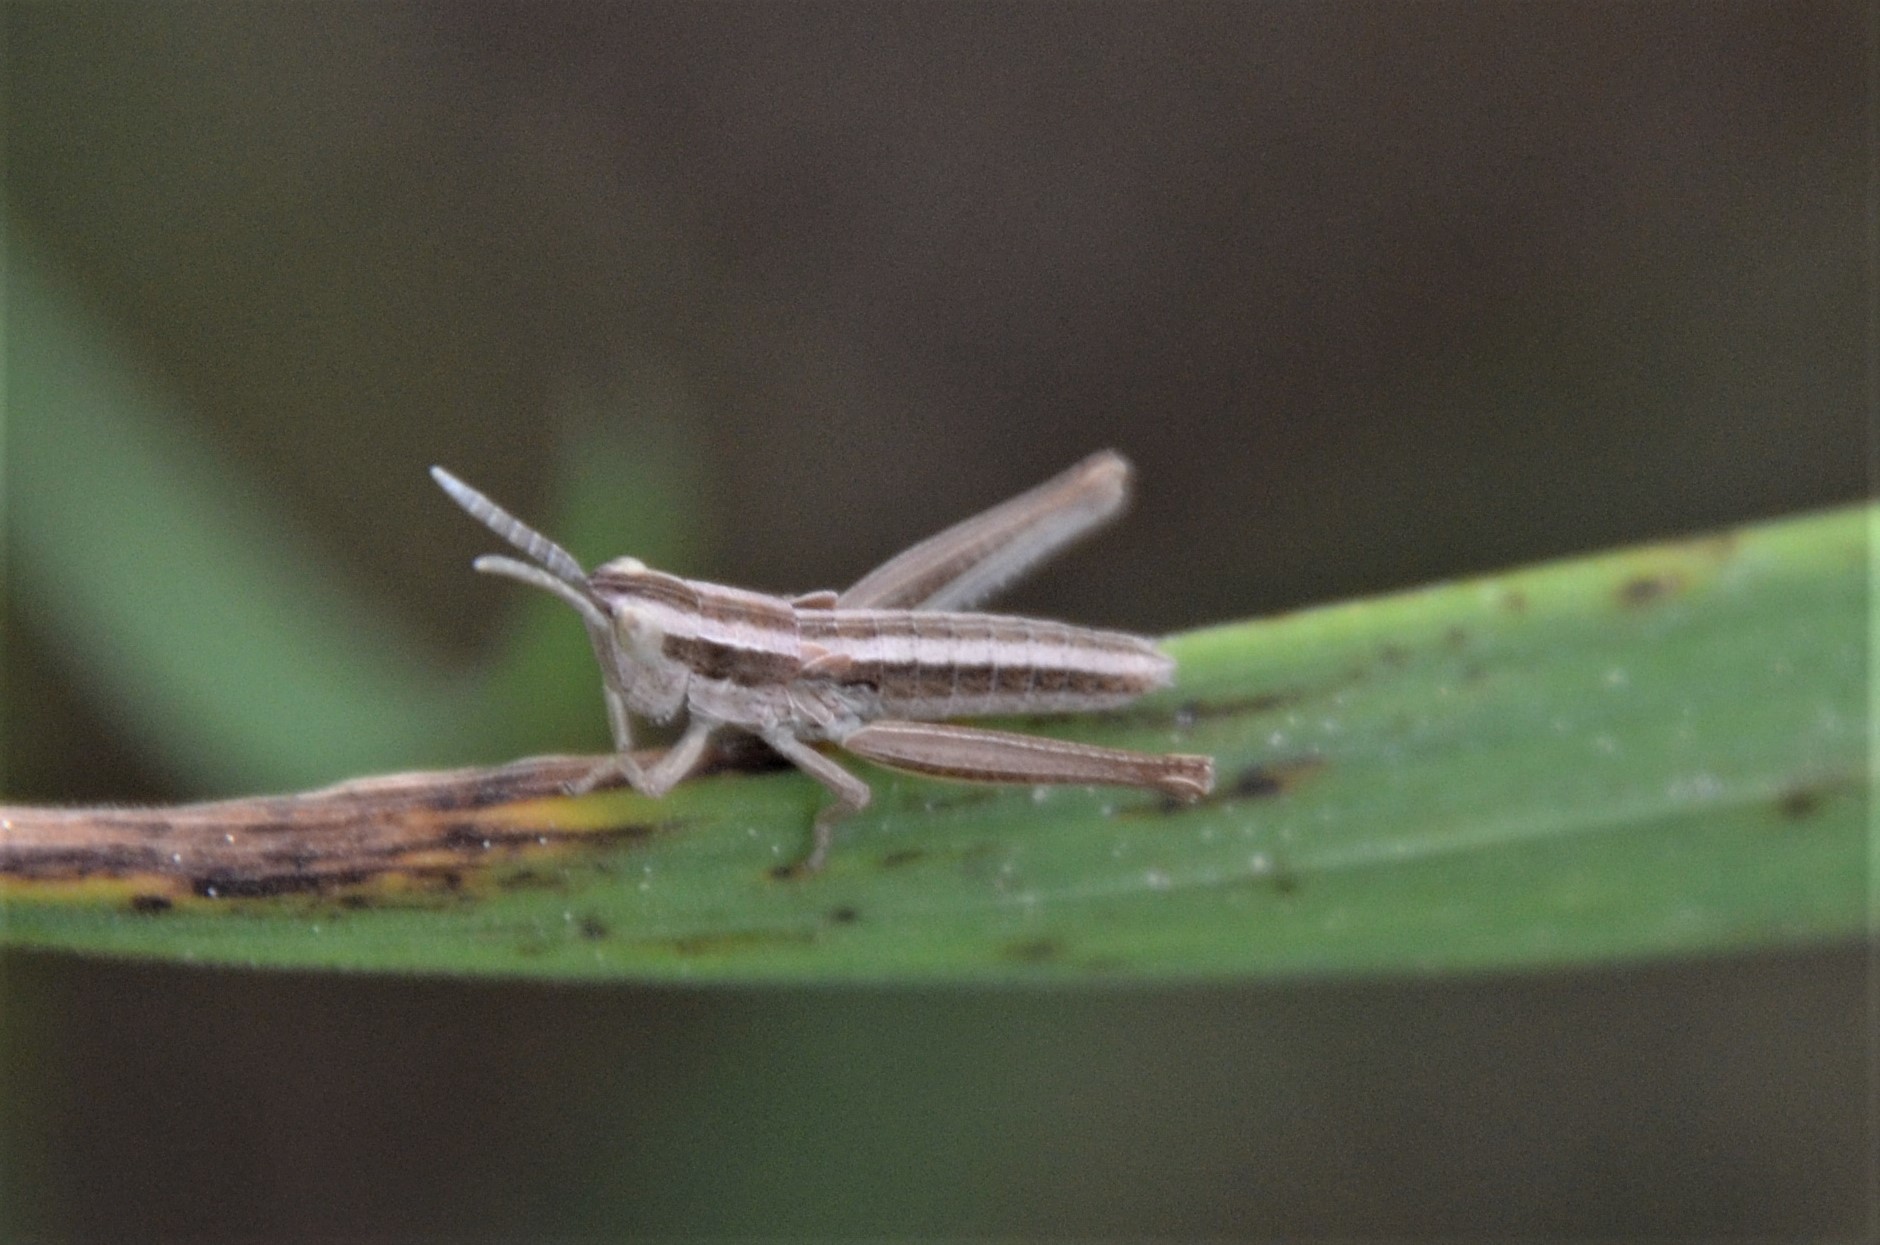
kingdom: Animalia
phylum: Arthropoda
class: Insecta
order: Orthoptera
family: Acrididae
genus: Euthystira
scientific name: Euthystira brachyptera
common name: Small gold grasshopper
